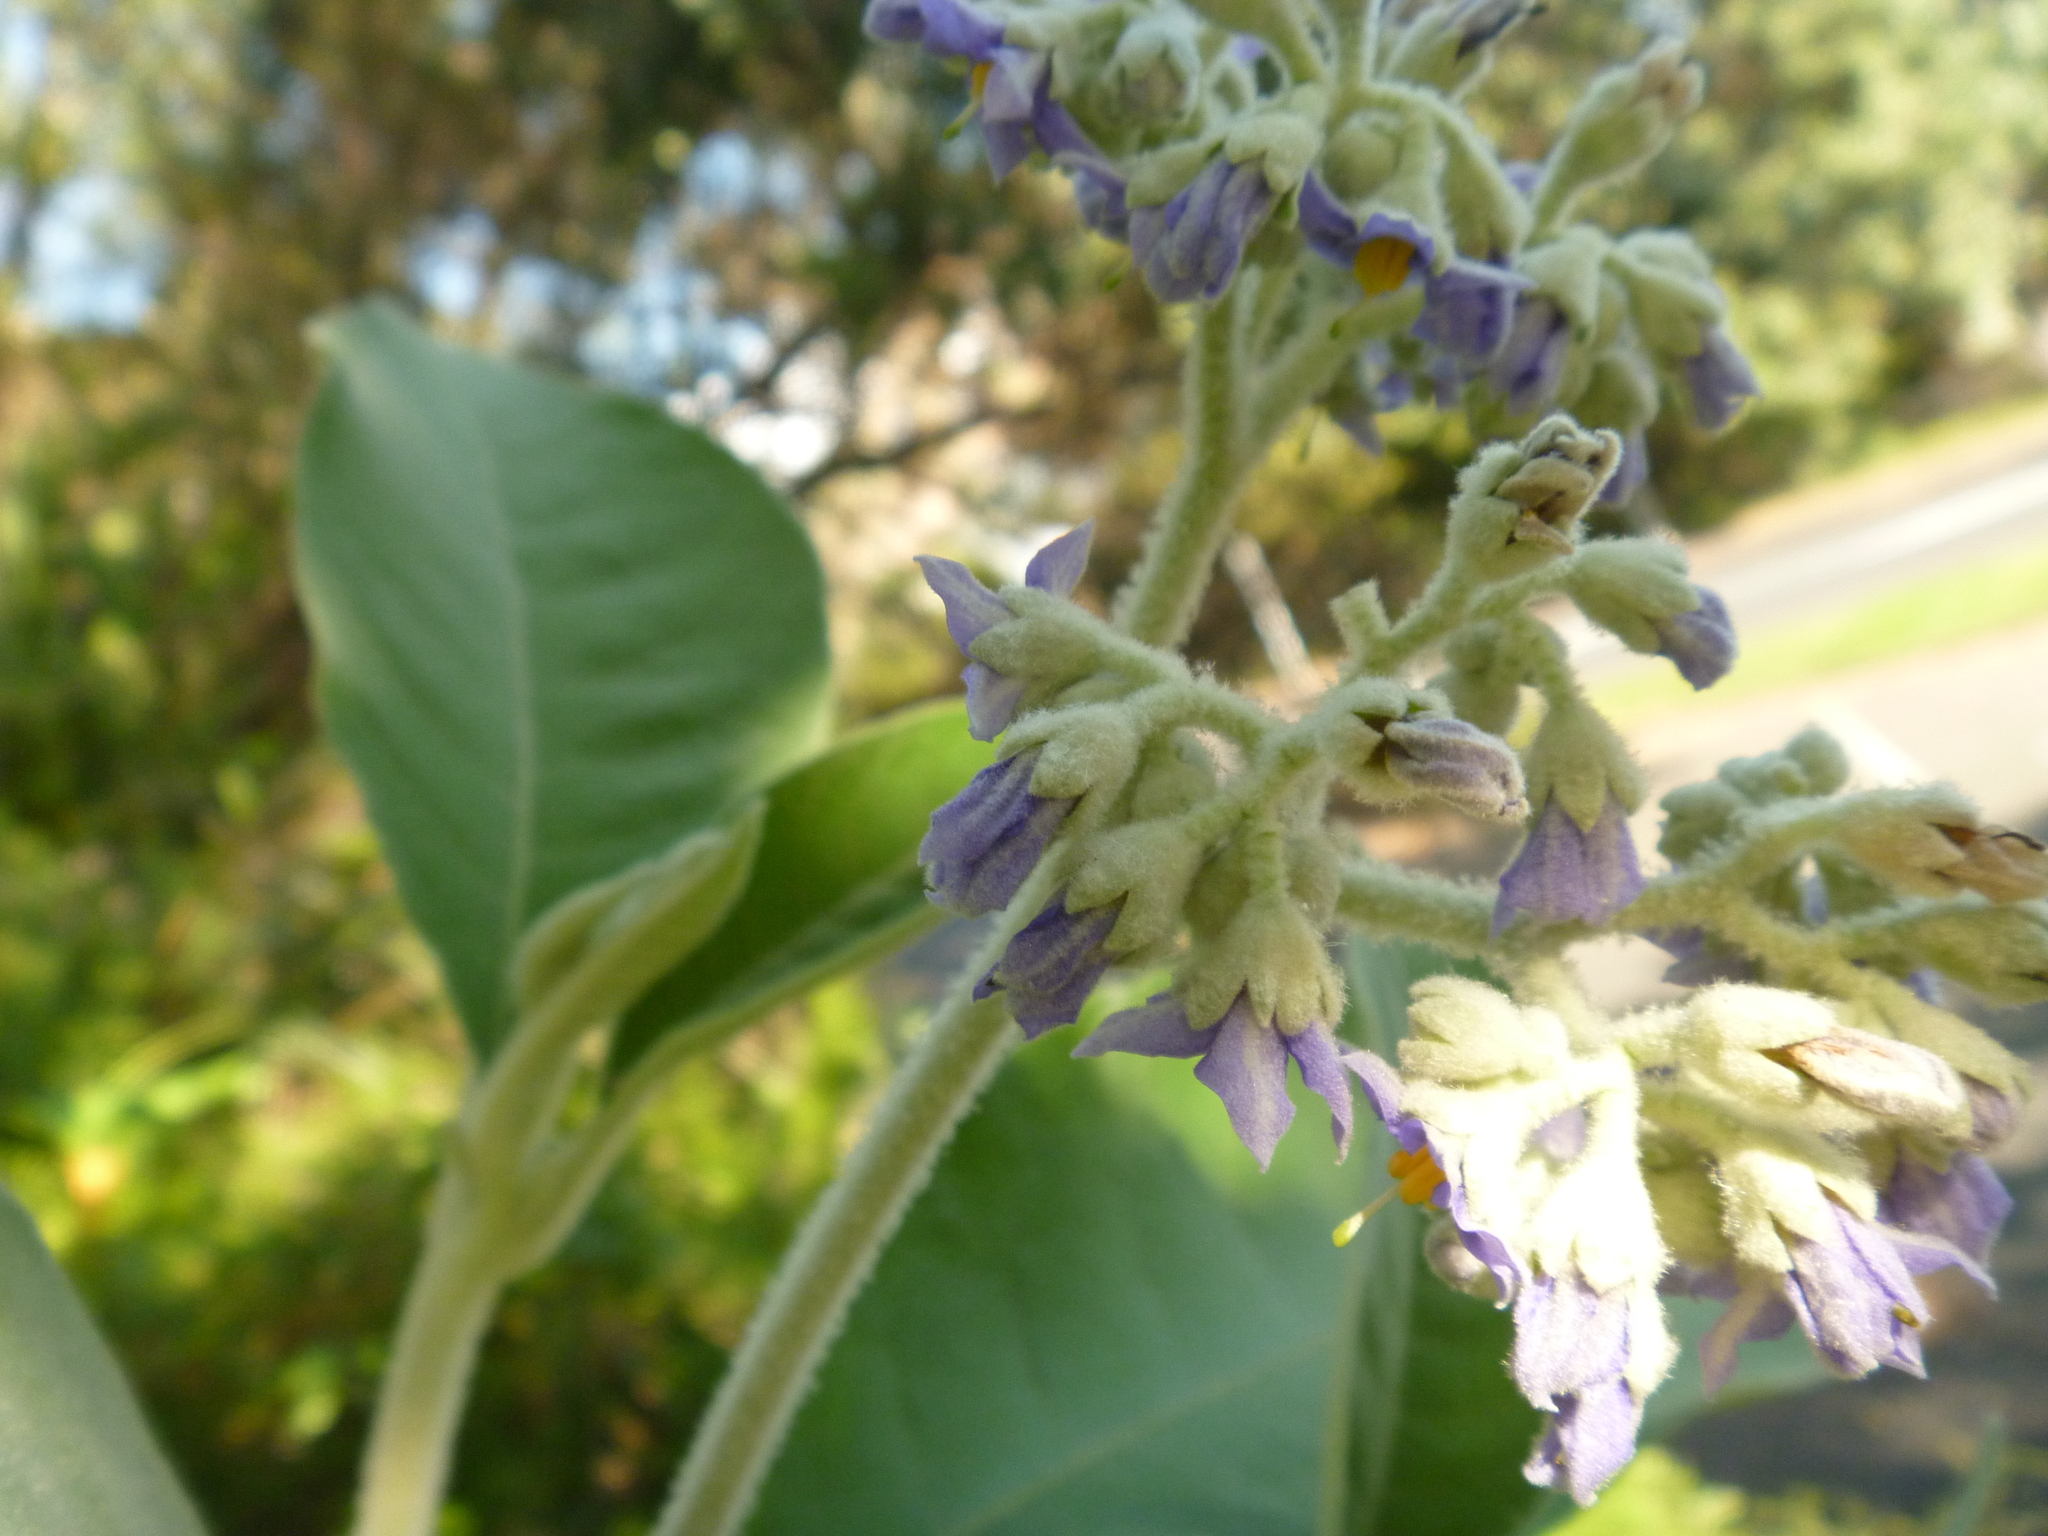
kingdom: Plantae
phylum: Tracheophyta
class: Magnoliopsida
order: Solanales
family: Solanaceae
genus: Solanum
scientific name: Solanum mauritianum
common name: Earleaf nightshade
